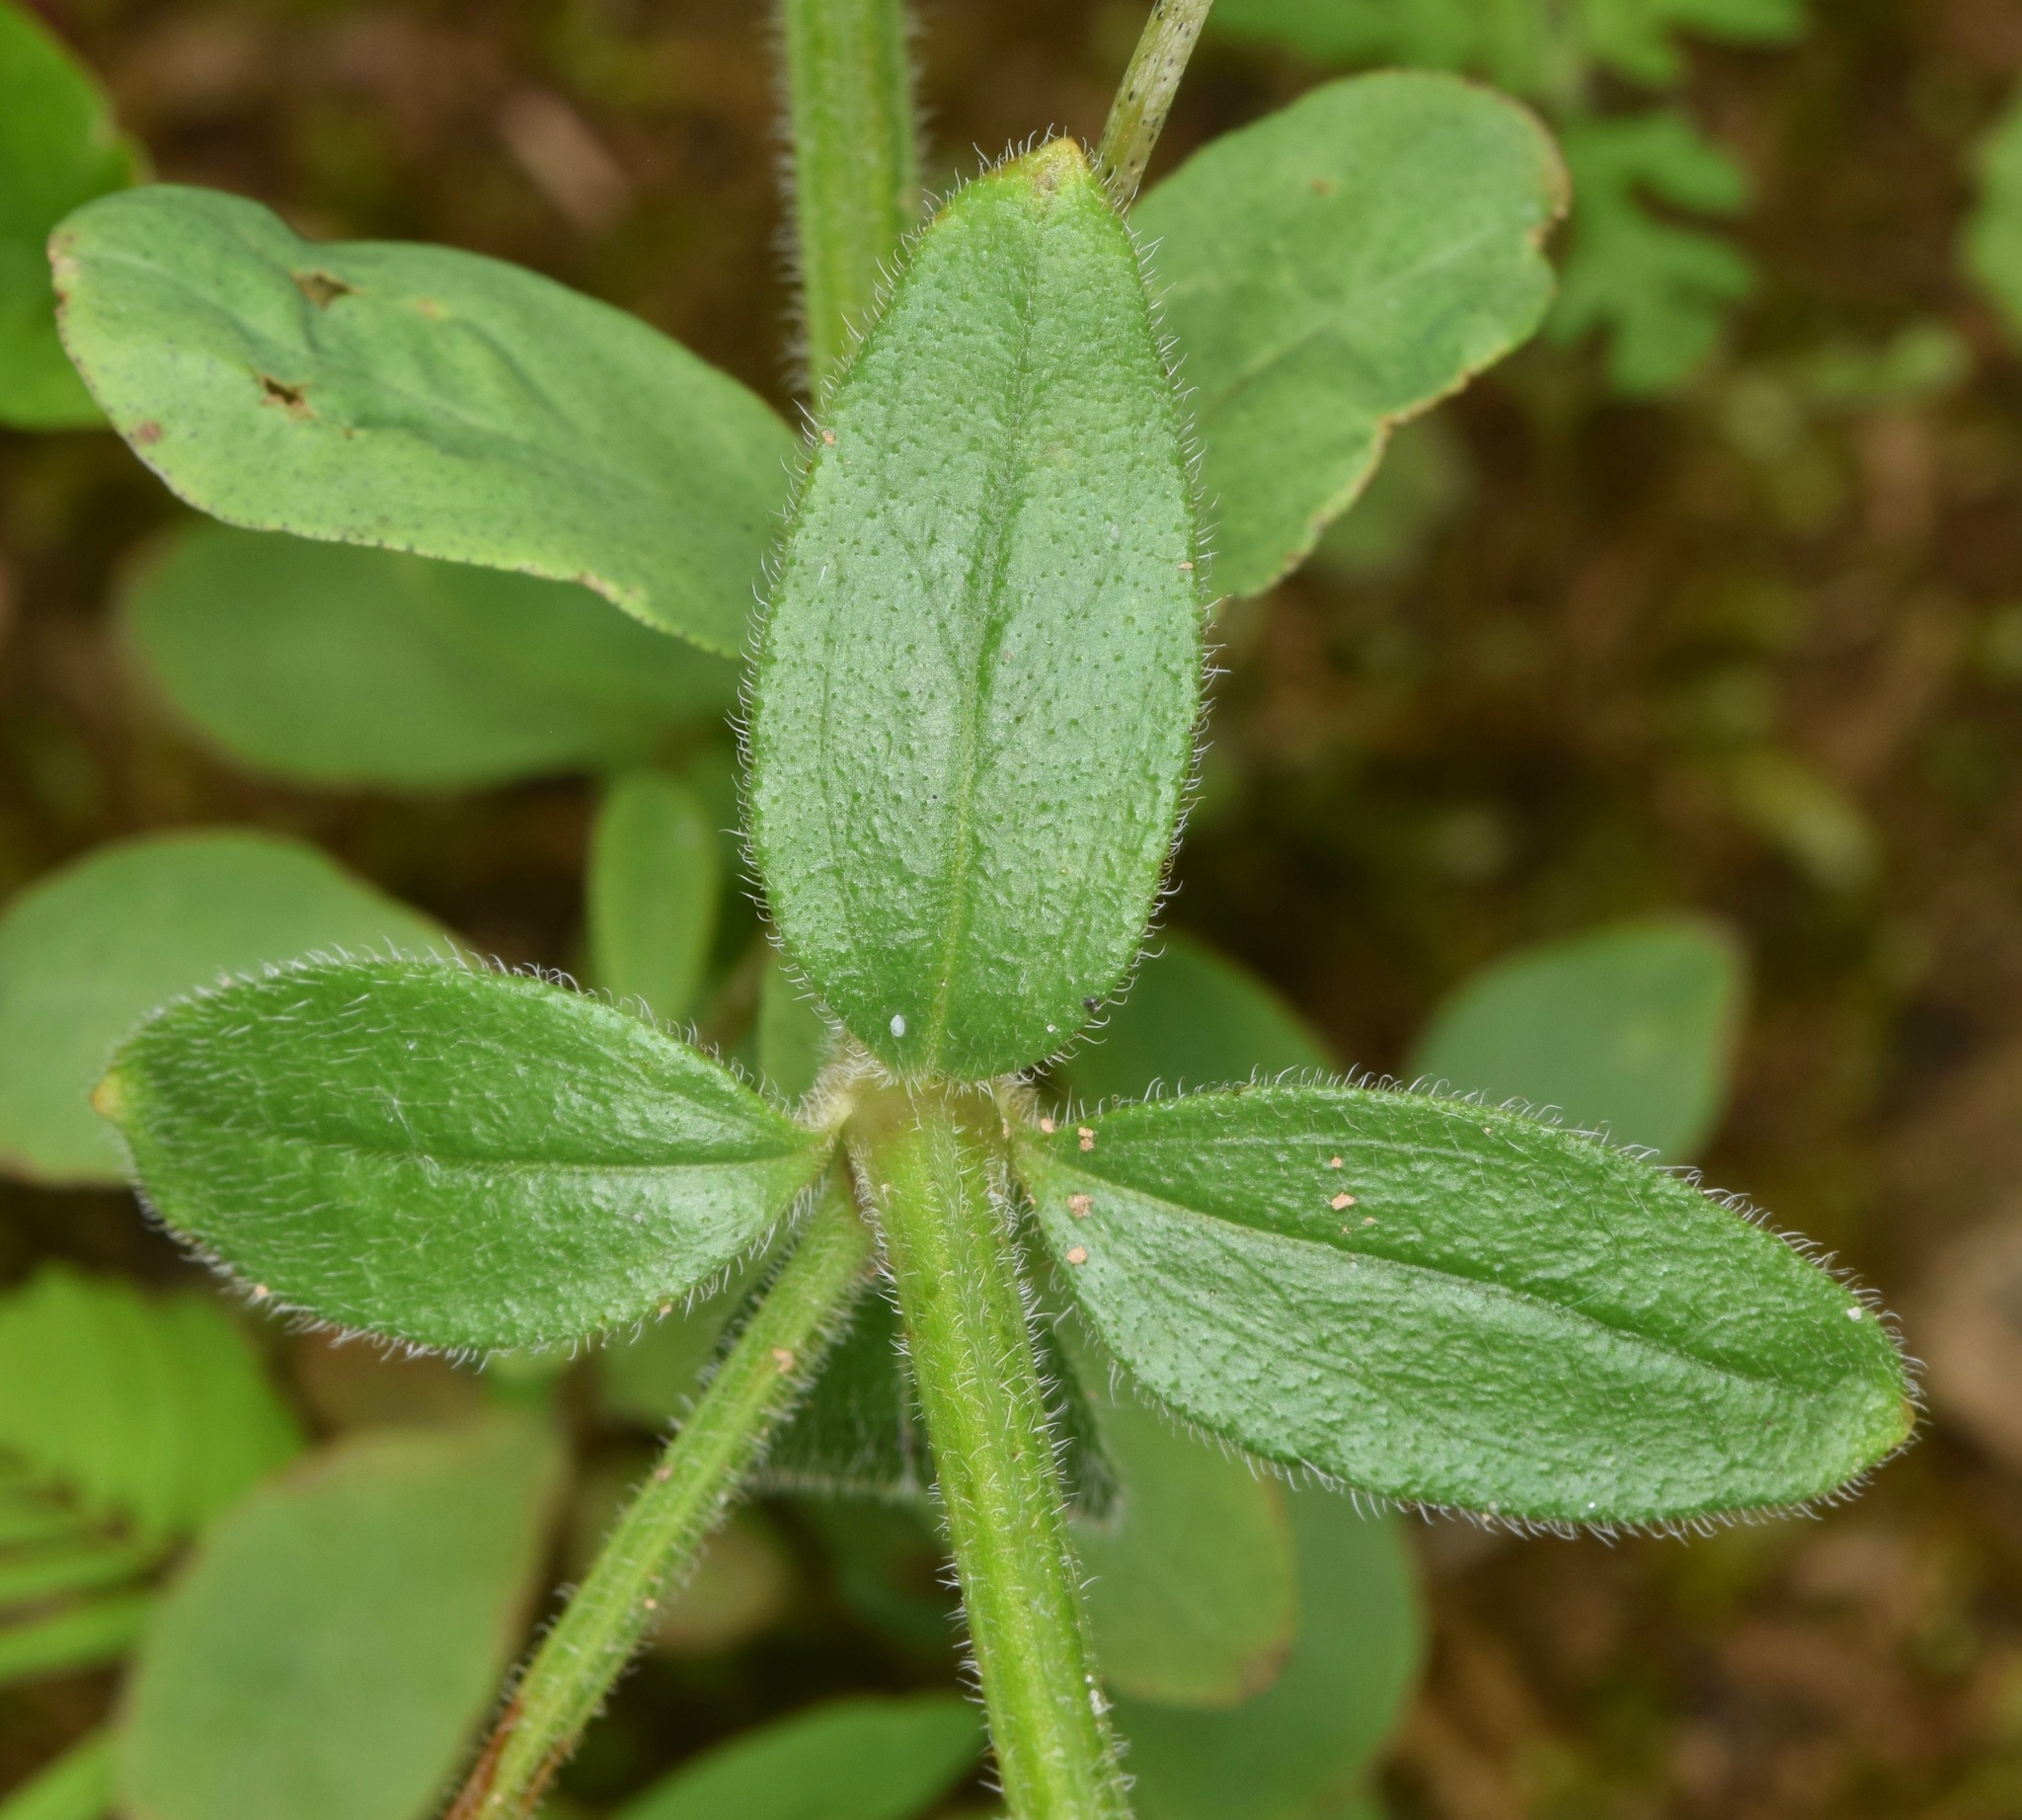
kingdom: Plantae
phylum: Tracheophyta
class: Magnoliopsida
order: Gentianales
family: Rubiaceae
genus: Galium
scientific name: Galium pilosum
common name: Hairy bedstraw
